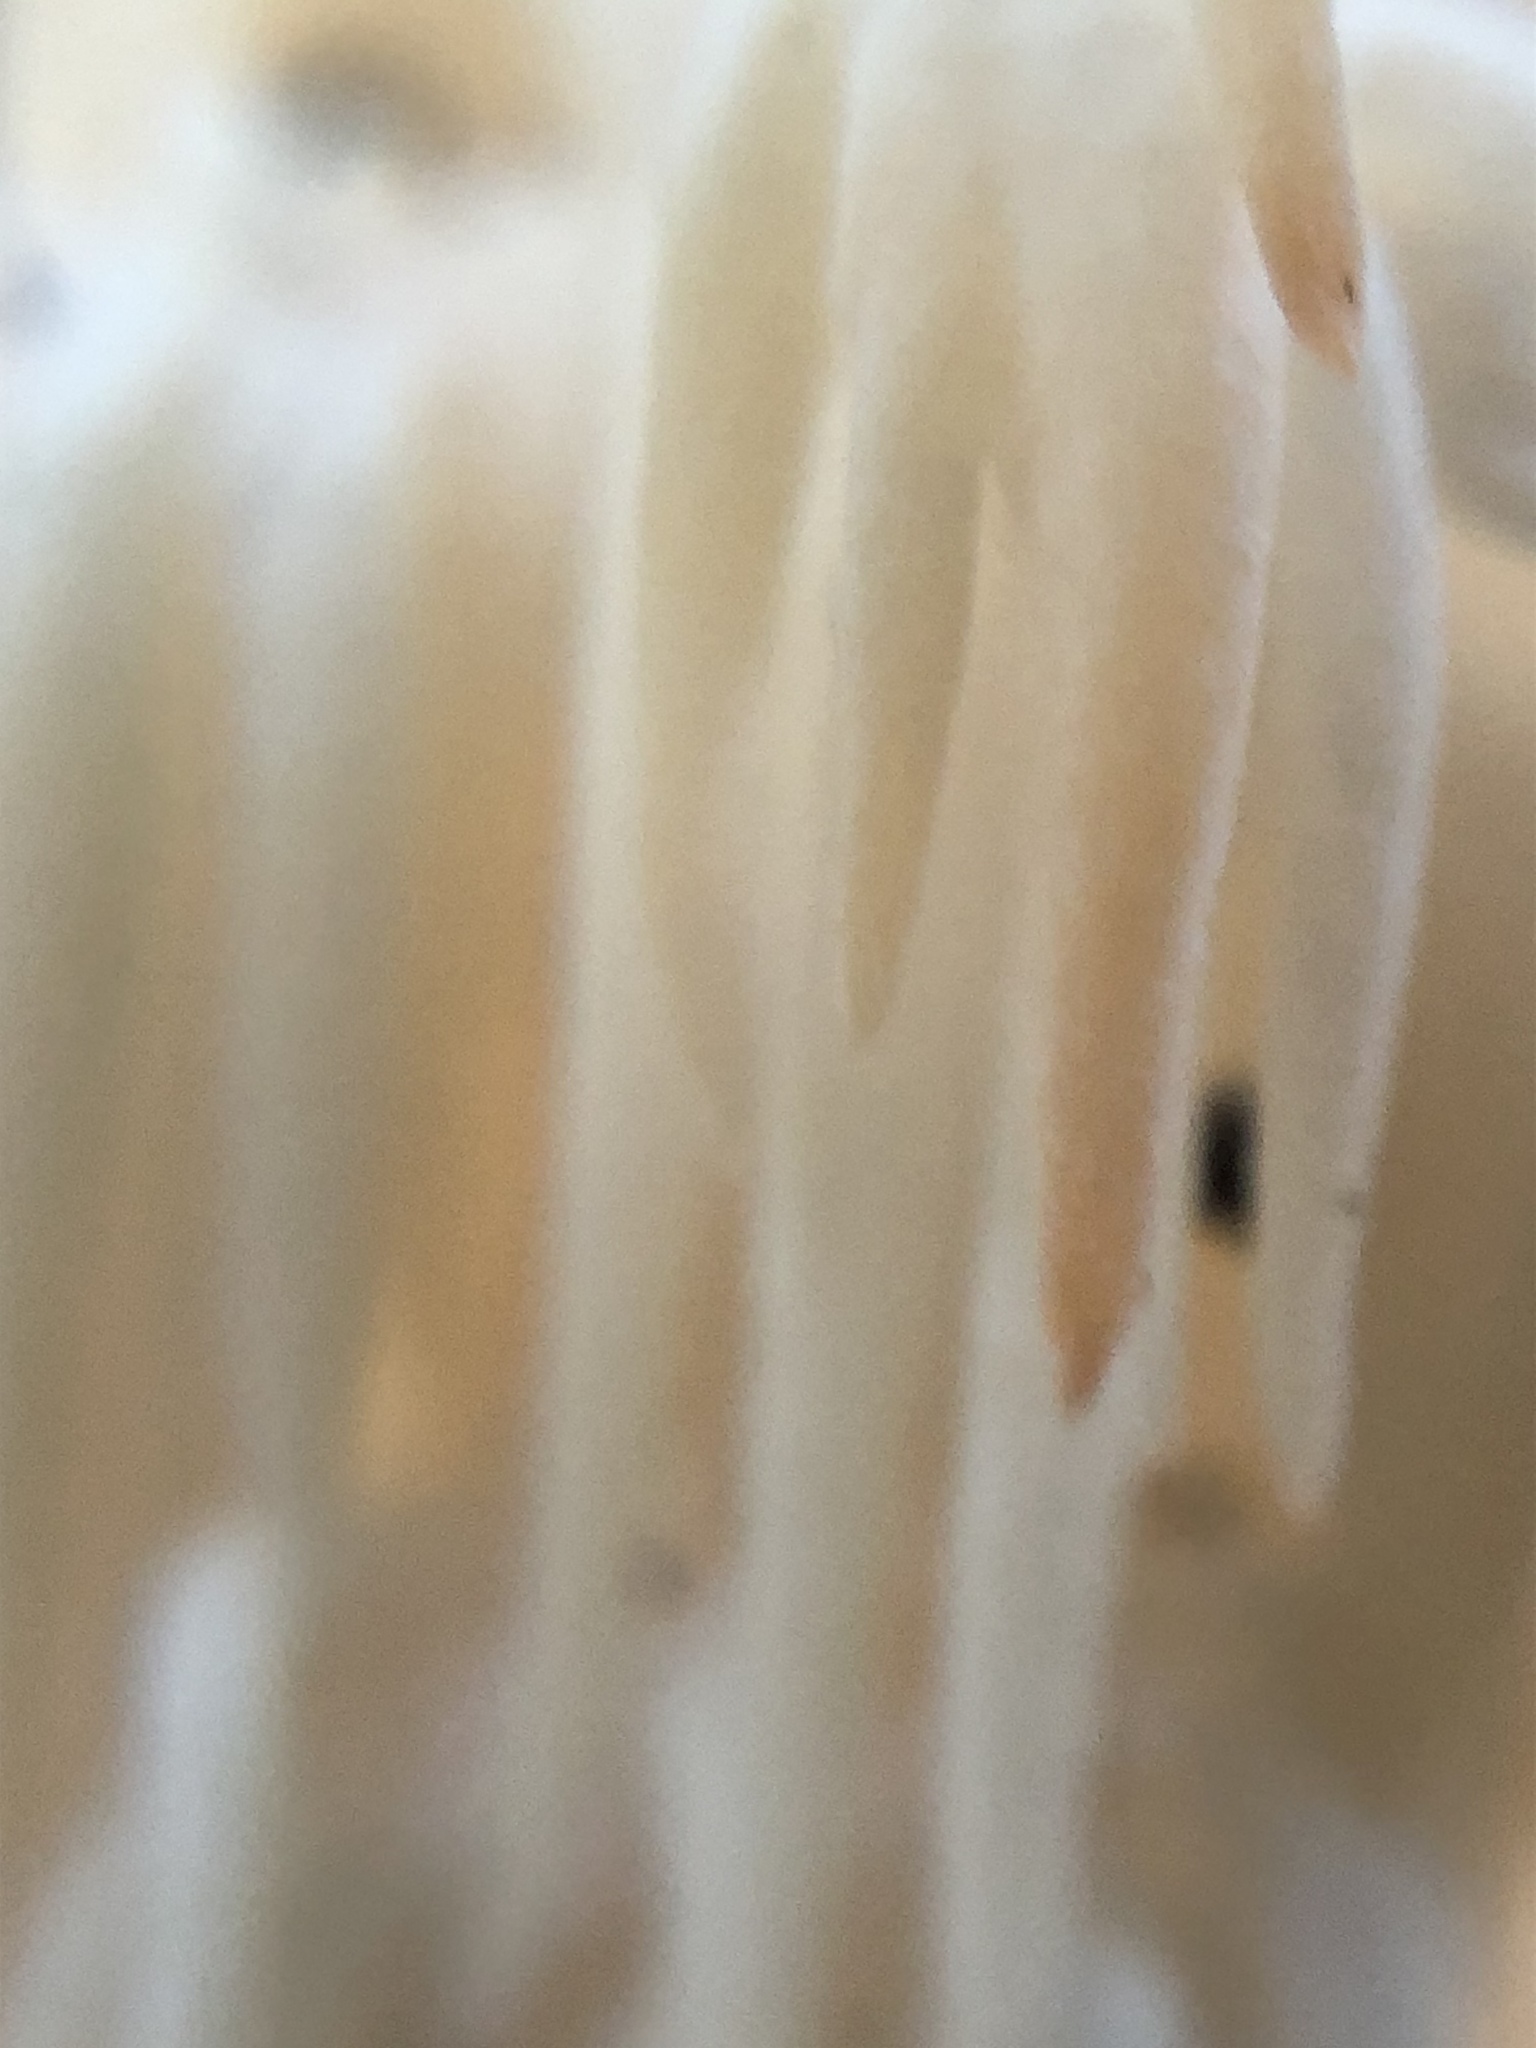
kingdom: Fungi
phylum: Basidiomycota
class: Agaricomycetes
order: Russulales
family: Hericiaceae
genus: Hericium
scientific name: Hericium americanum
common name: Bear's head tooth
